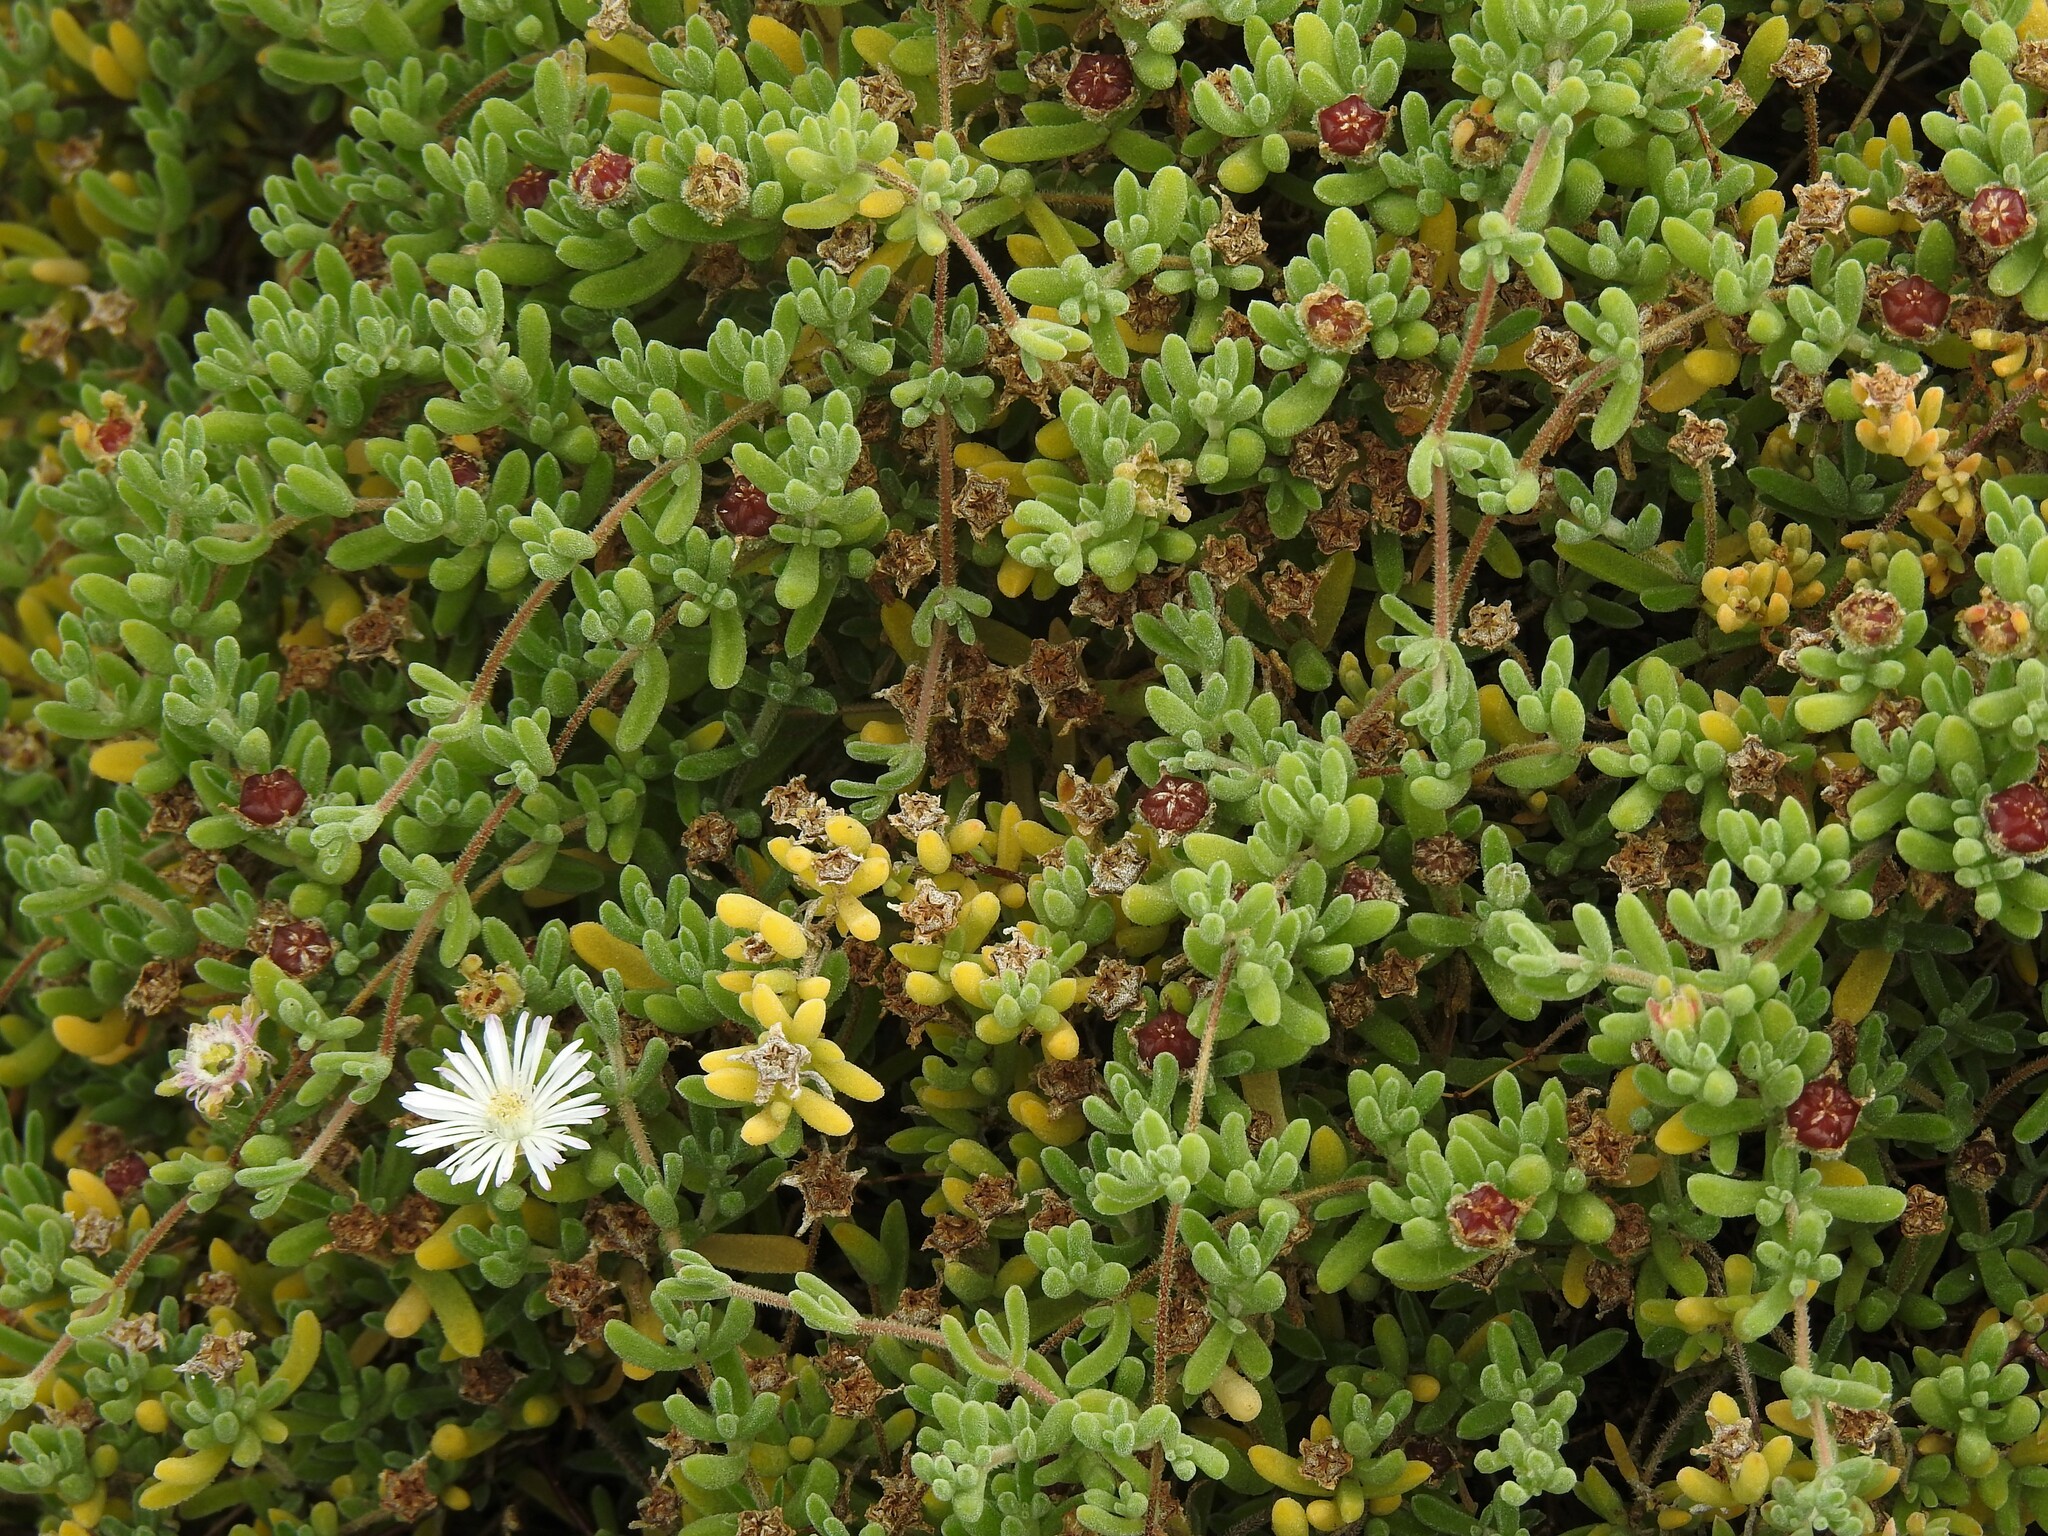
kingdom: Plantae
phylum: Tracheophyta
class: Magnoliopsida
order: Caryophyllales
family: Aizoaceae
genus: Drosanthemum
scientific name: Drosanthemum floribundum
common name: Pale dewplant
